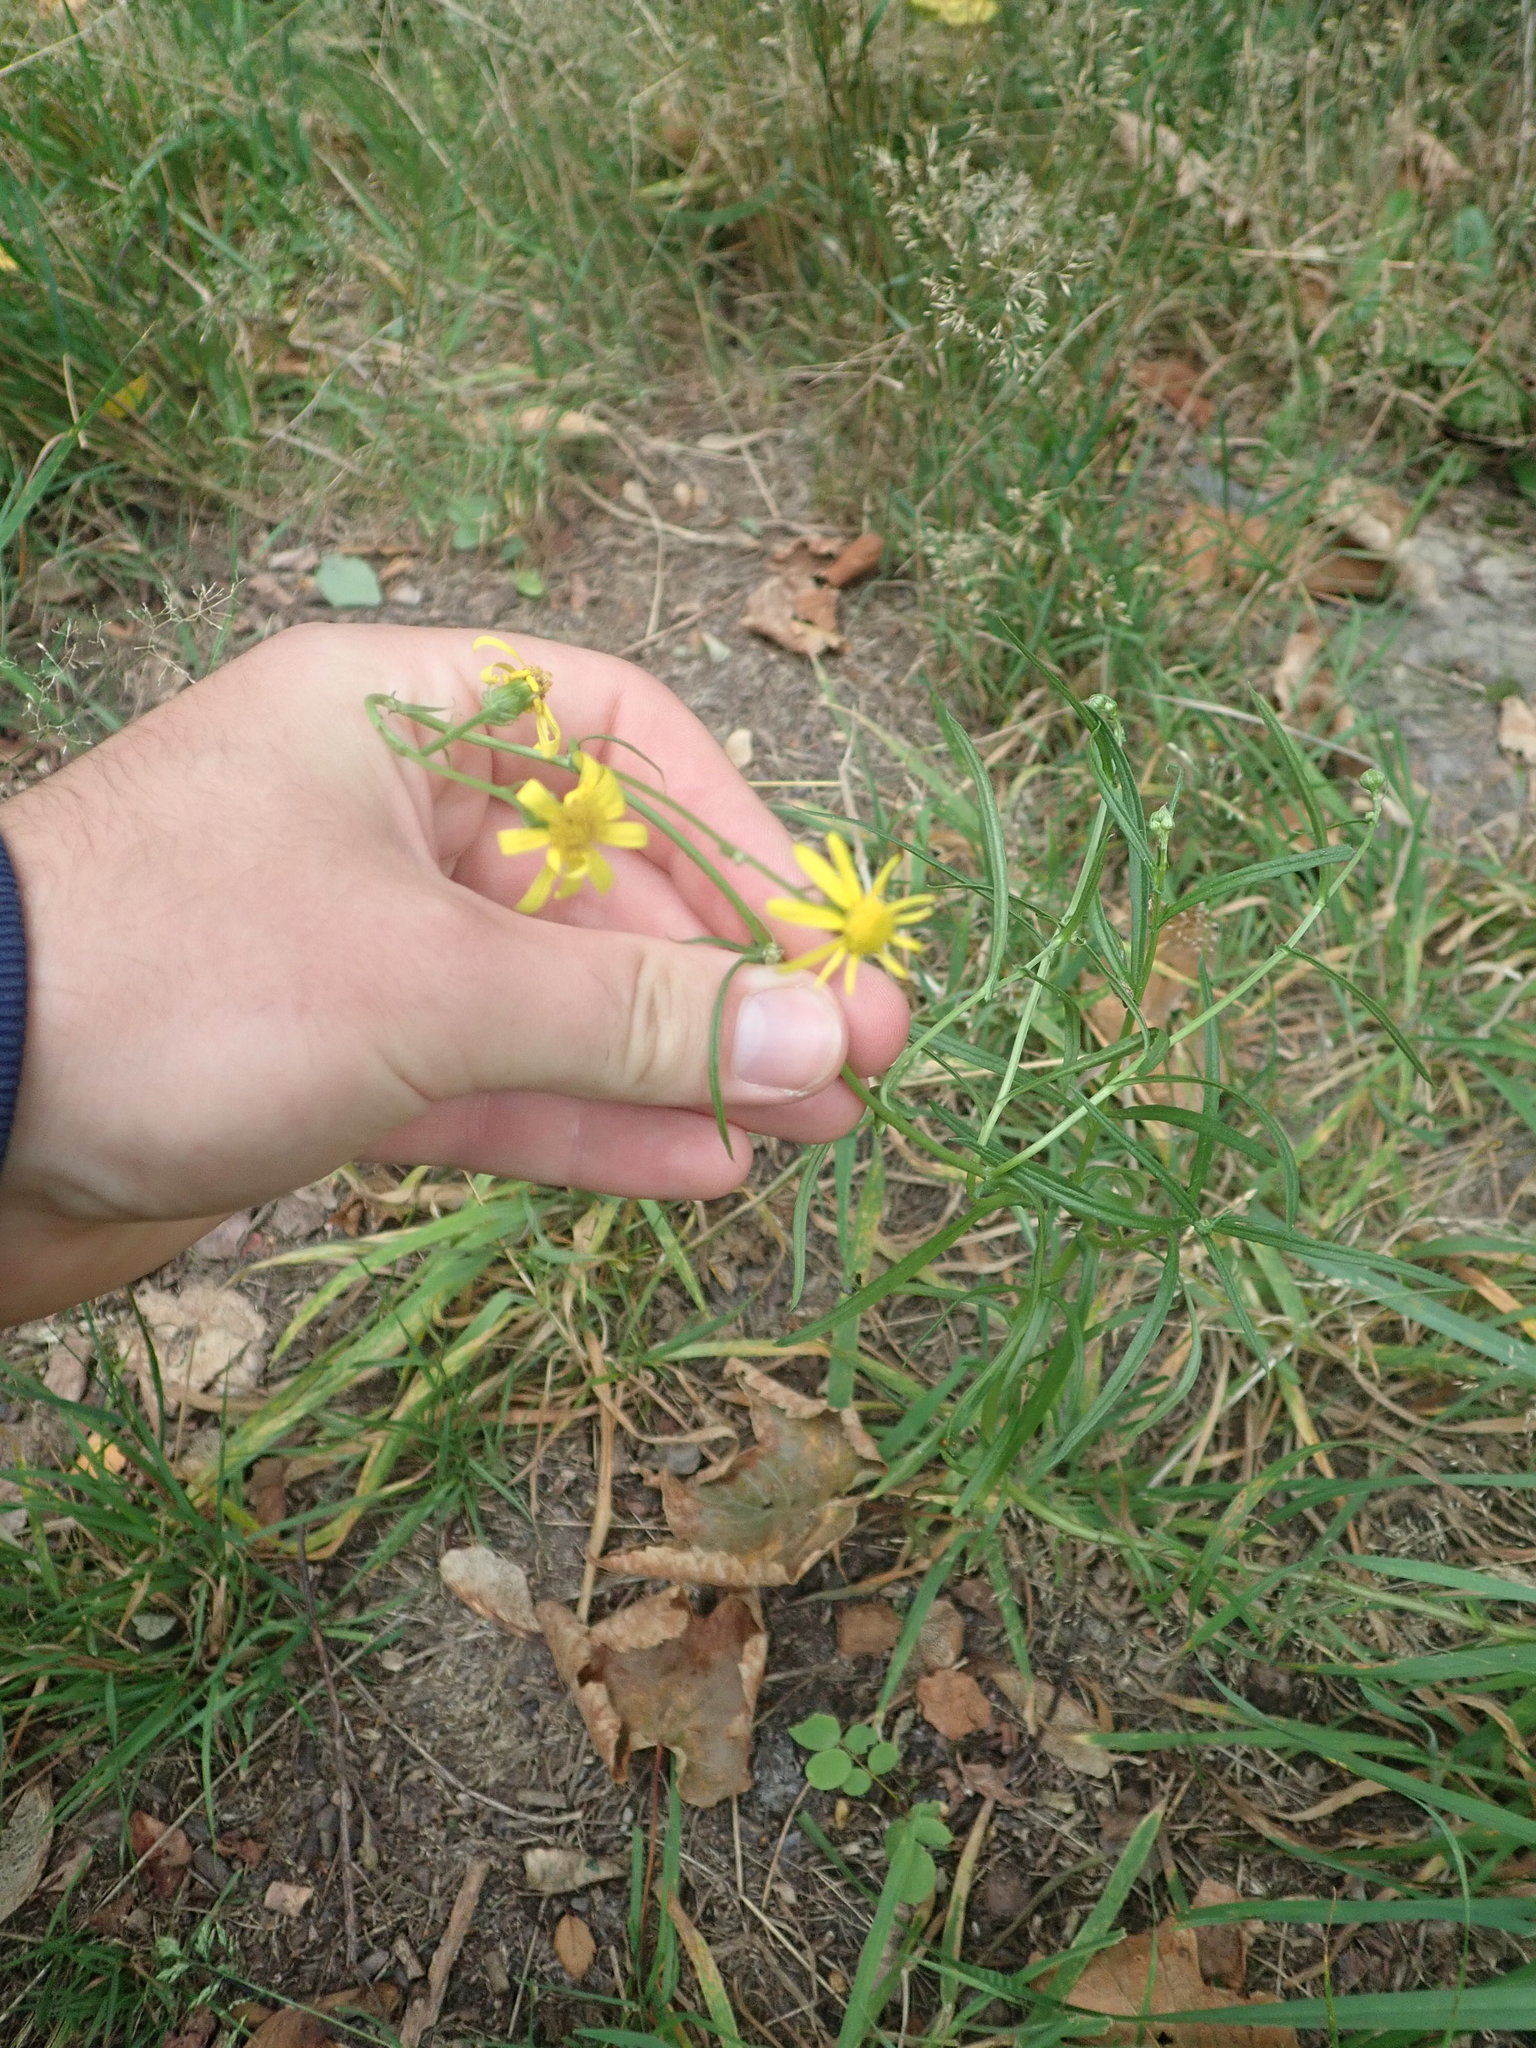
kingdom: Plantae
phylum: Tracheophyta
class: Magnoliopsida
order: Asterales
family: Asteraceae
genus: Senecio
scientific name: Senecio inaequidens
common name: Narrow-leaved ragwort
